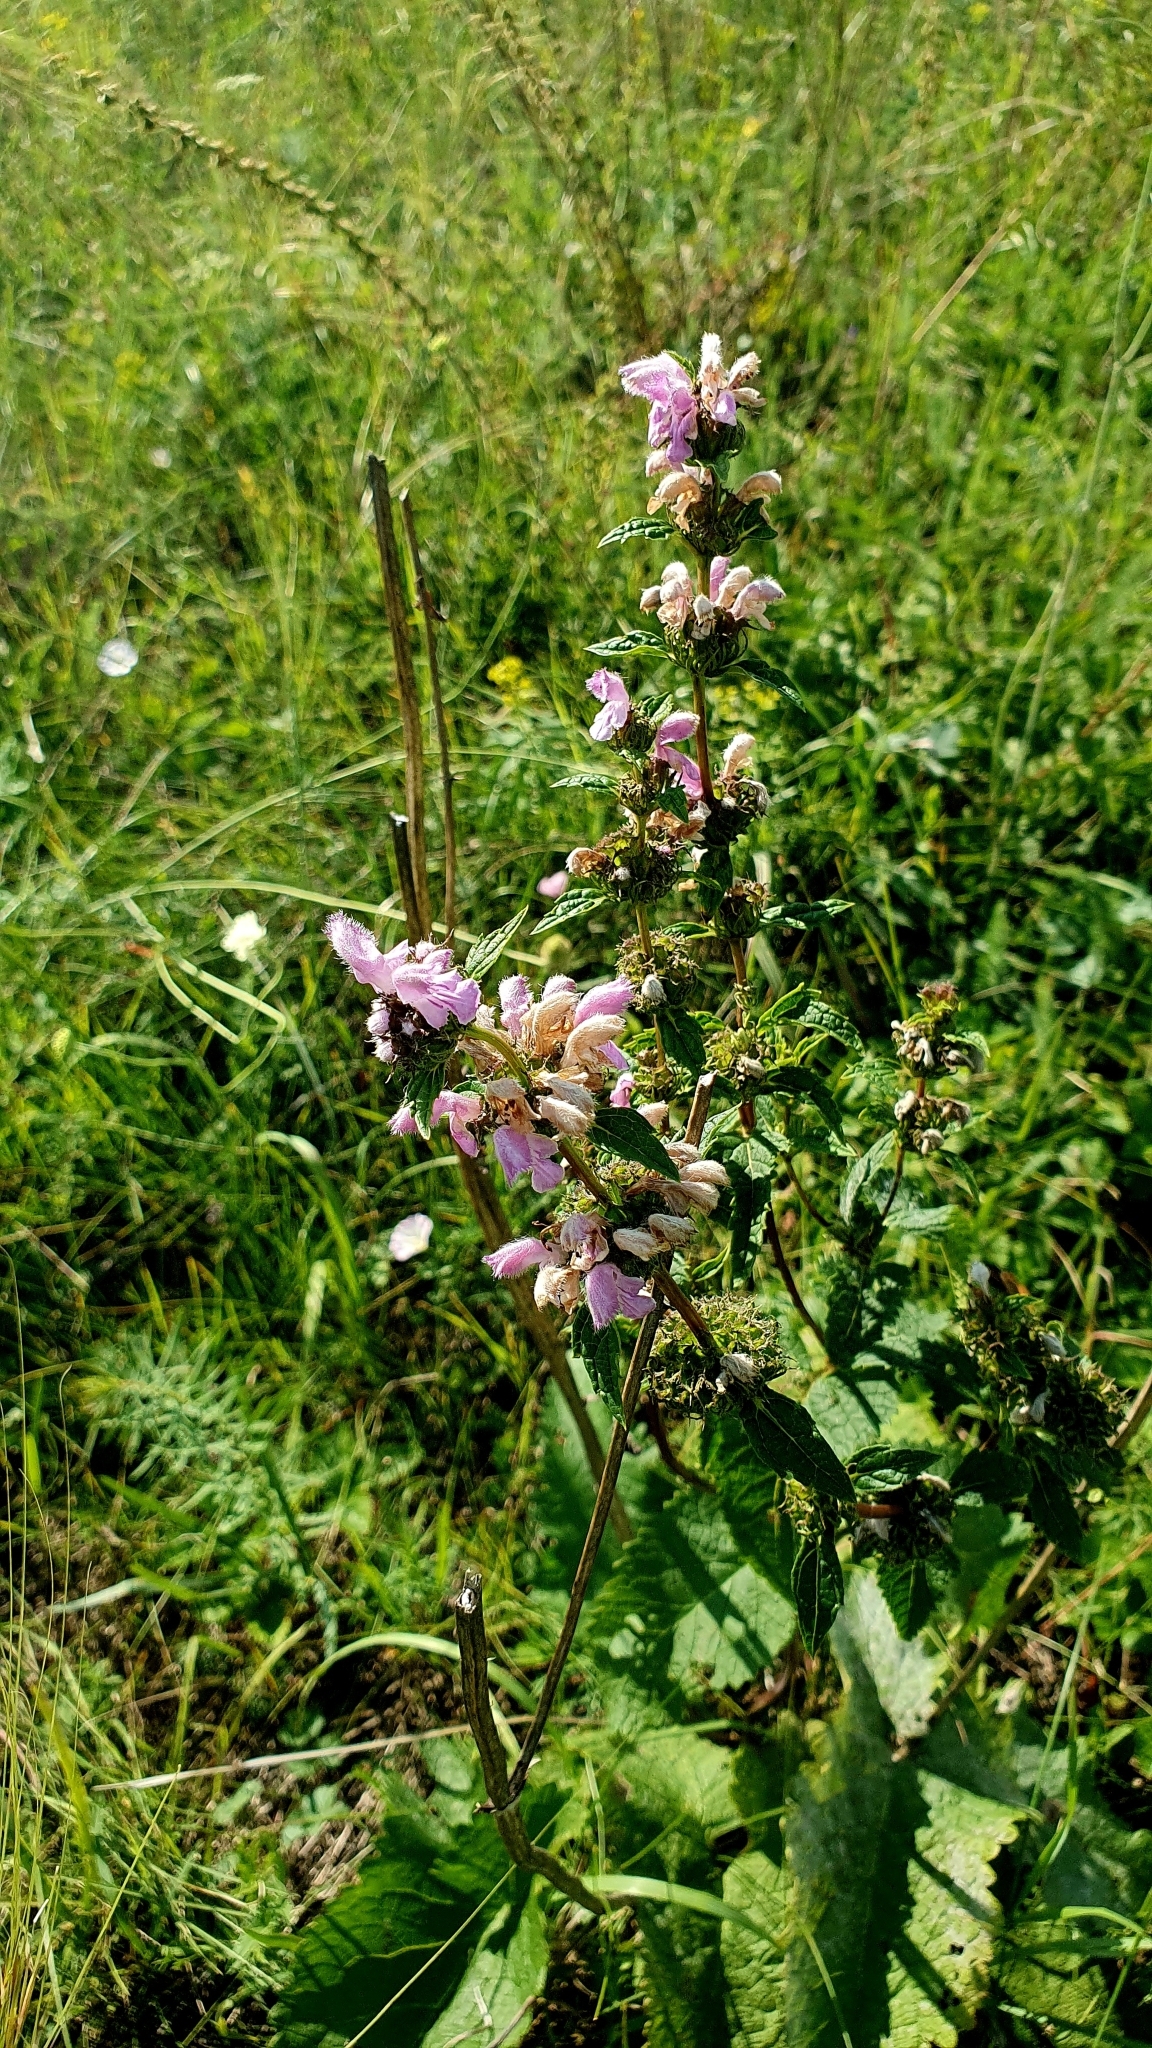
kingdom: Plantae
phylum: Tracheophyta
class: Magnoliopsida
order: Lamiales
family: Lamiaceae
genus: Phlomoides
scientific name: Phlomoides tuberosa
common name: Tuberous jerusalem sage
